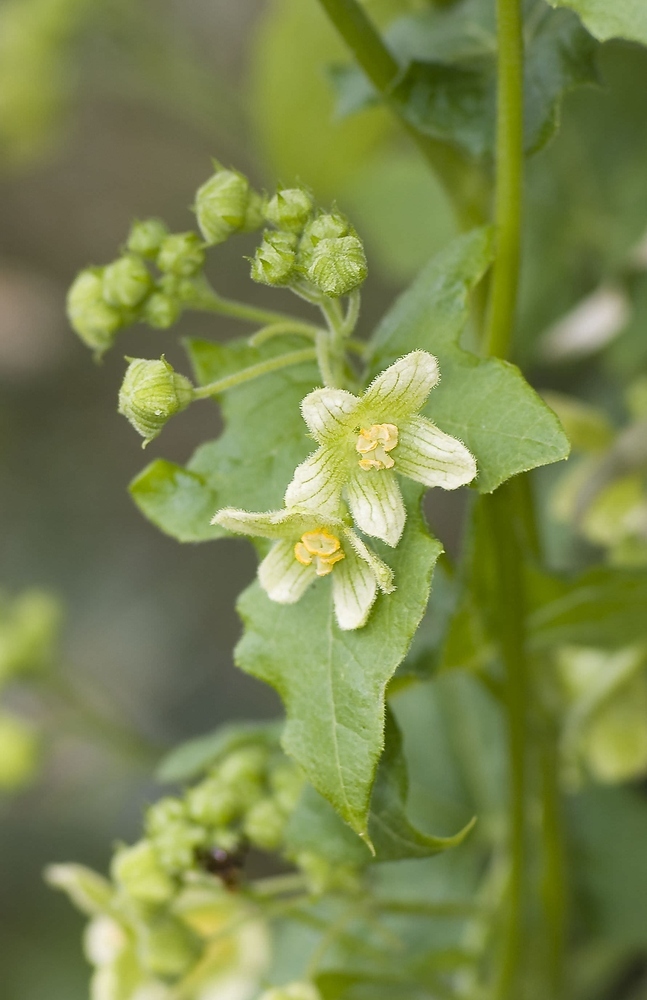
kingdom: Plantae
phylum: Tracheophyta
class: Magnoliopsida
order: Cucurbitales
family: Cucurbitaceae
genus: Bryonia
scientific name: Bryonia dioica
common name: White bryony
